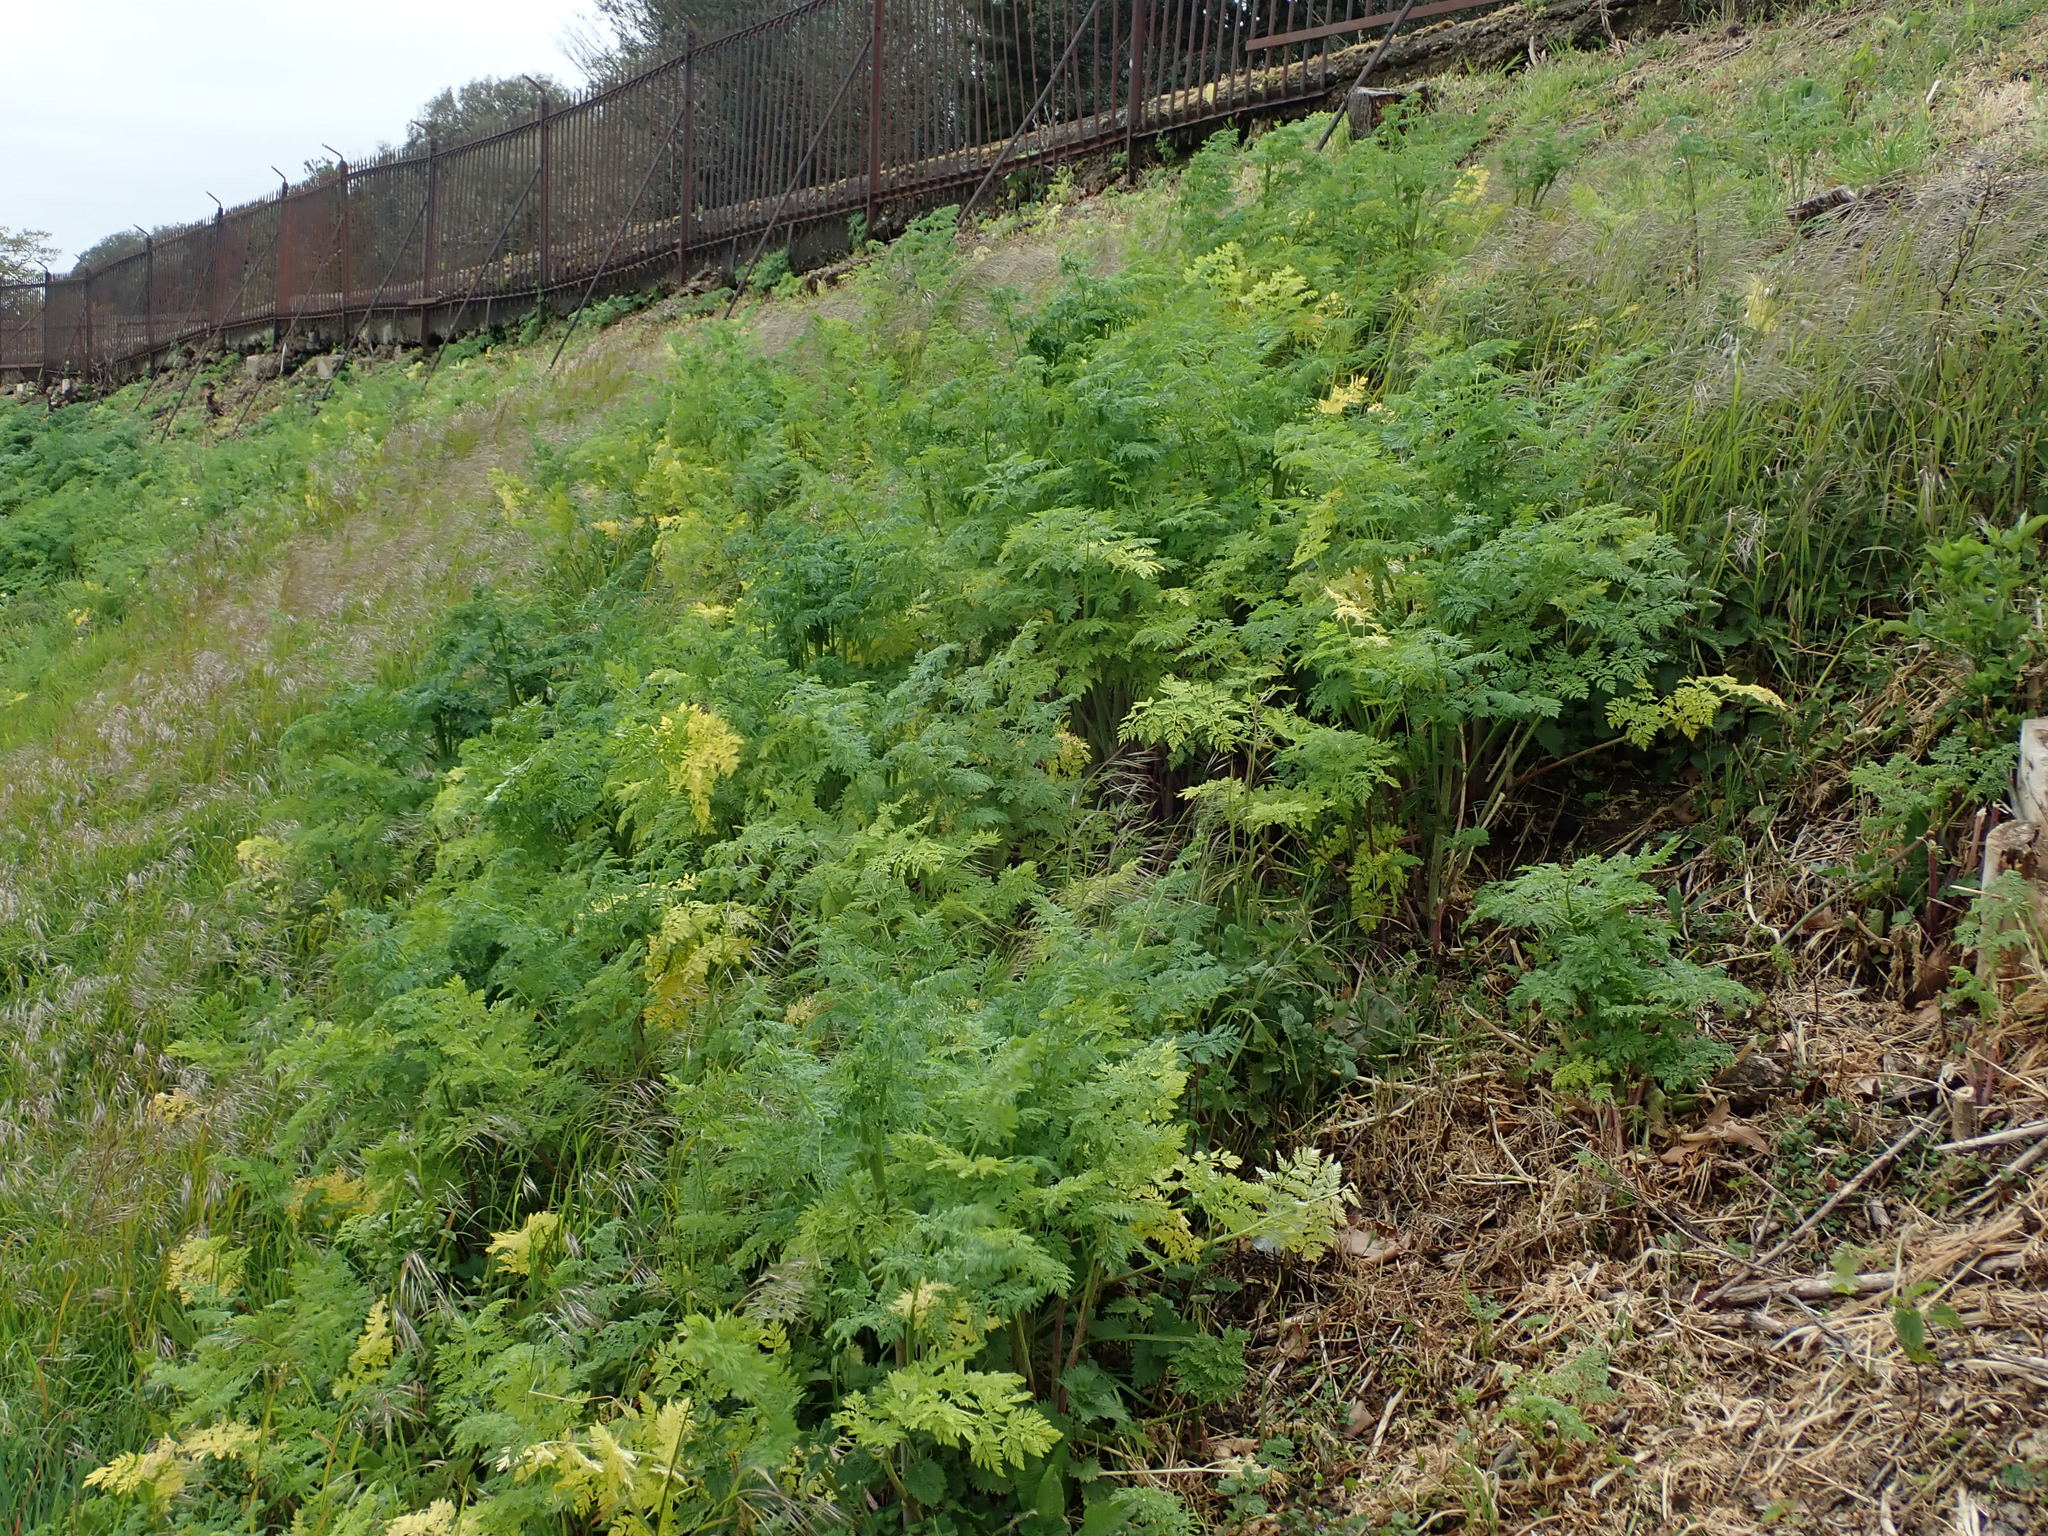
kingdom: Plantae
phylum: Tracheophyta
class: Magnoliopsida
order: Apiales
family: Apiaceae
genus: Conium
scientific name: Conium maculatum
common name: Hemlock
